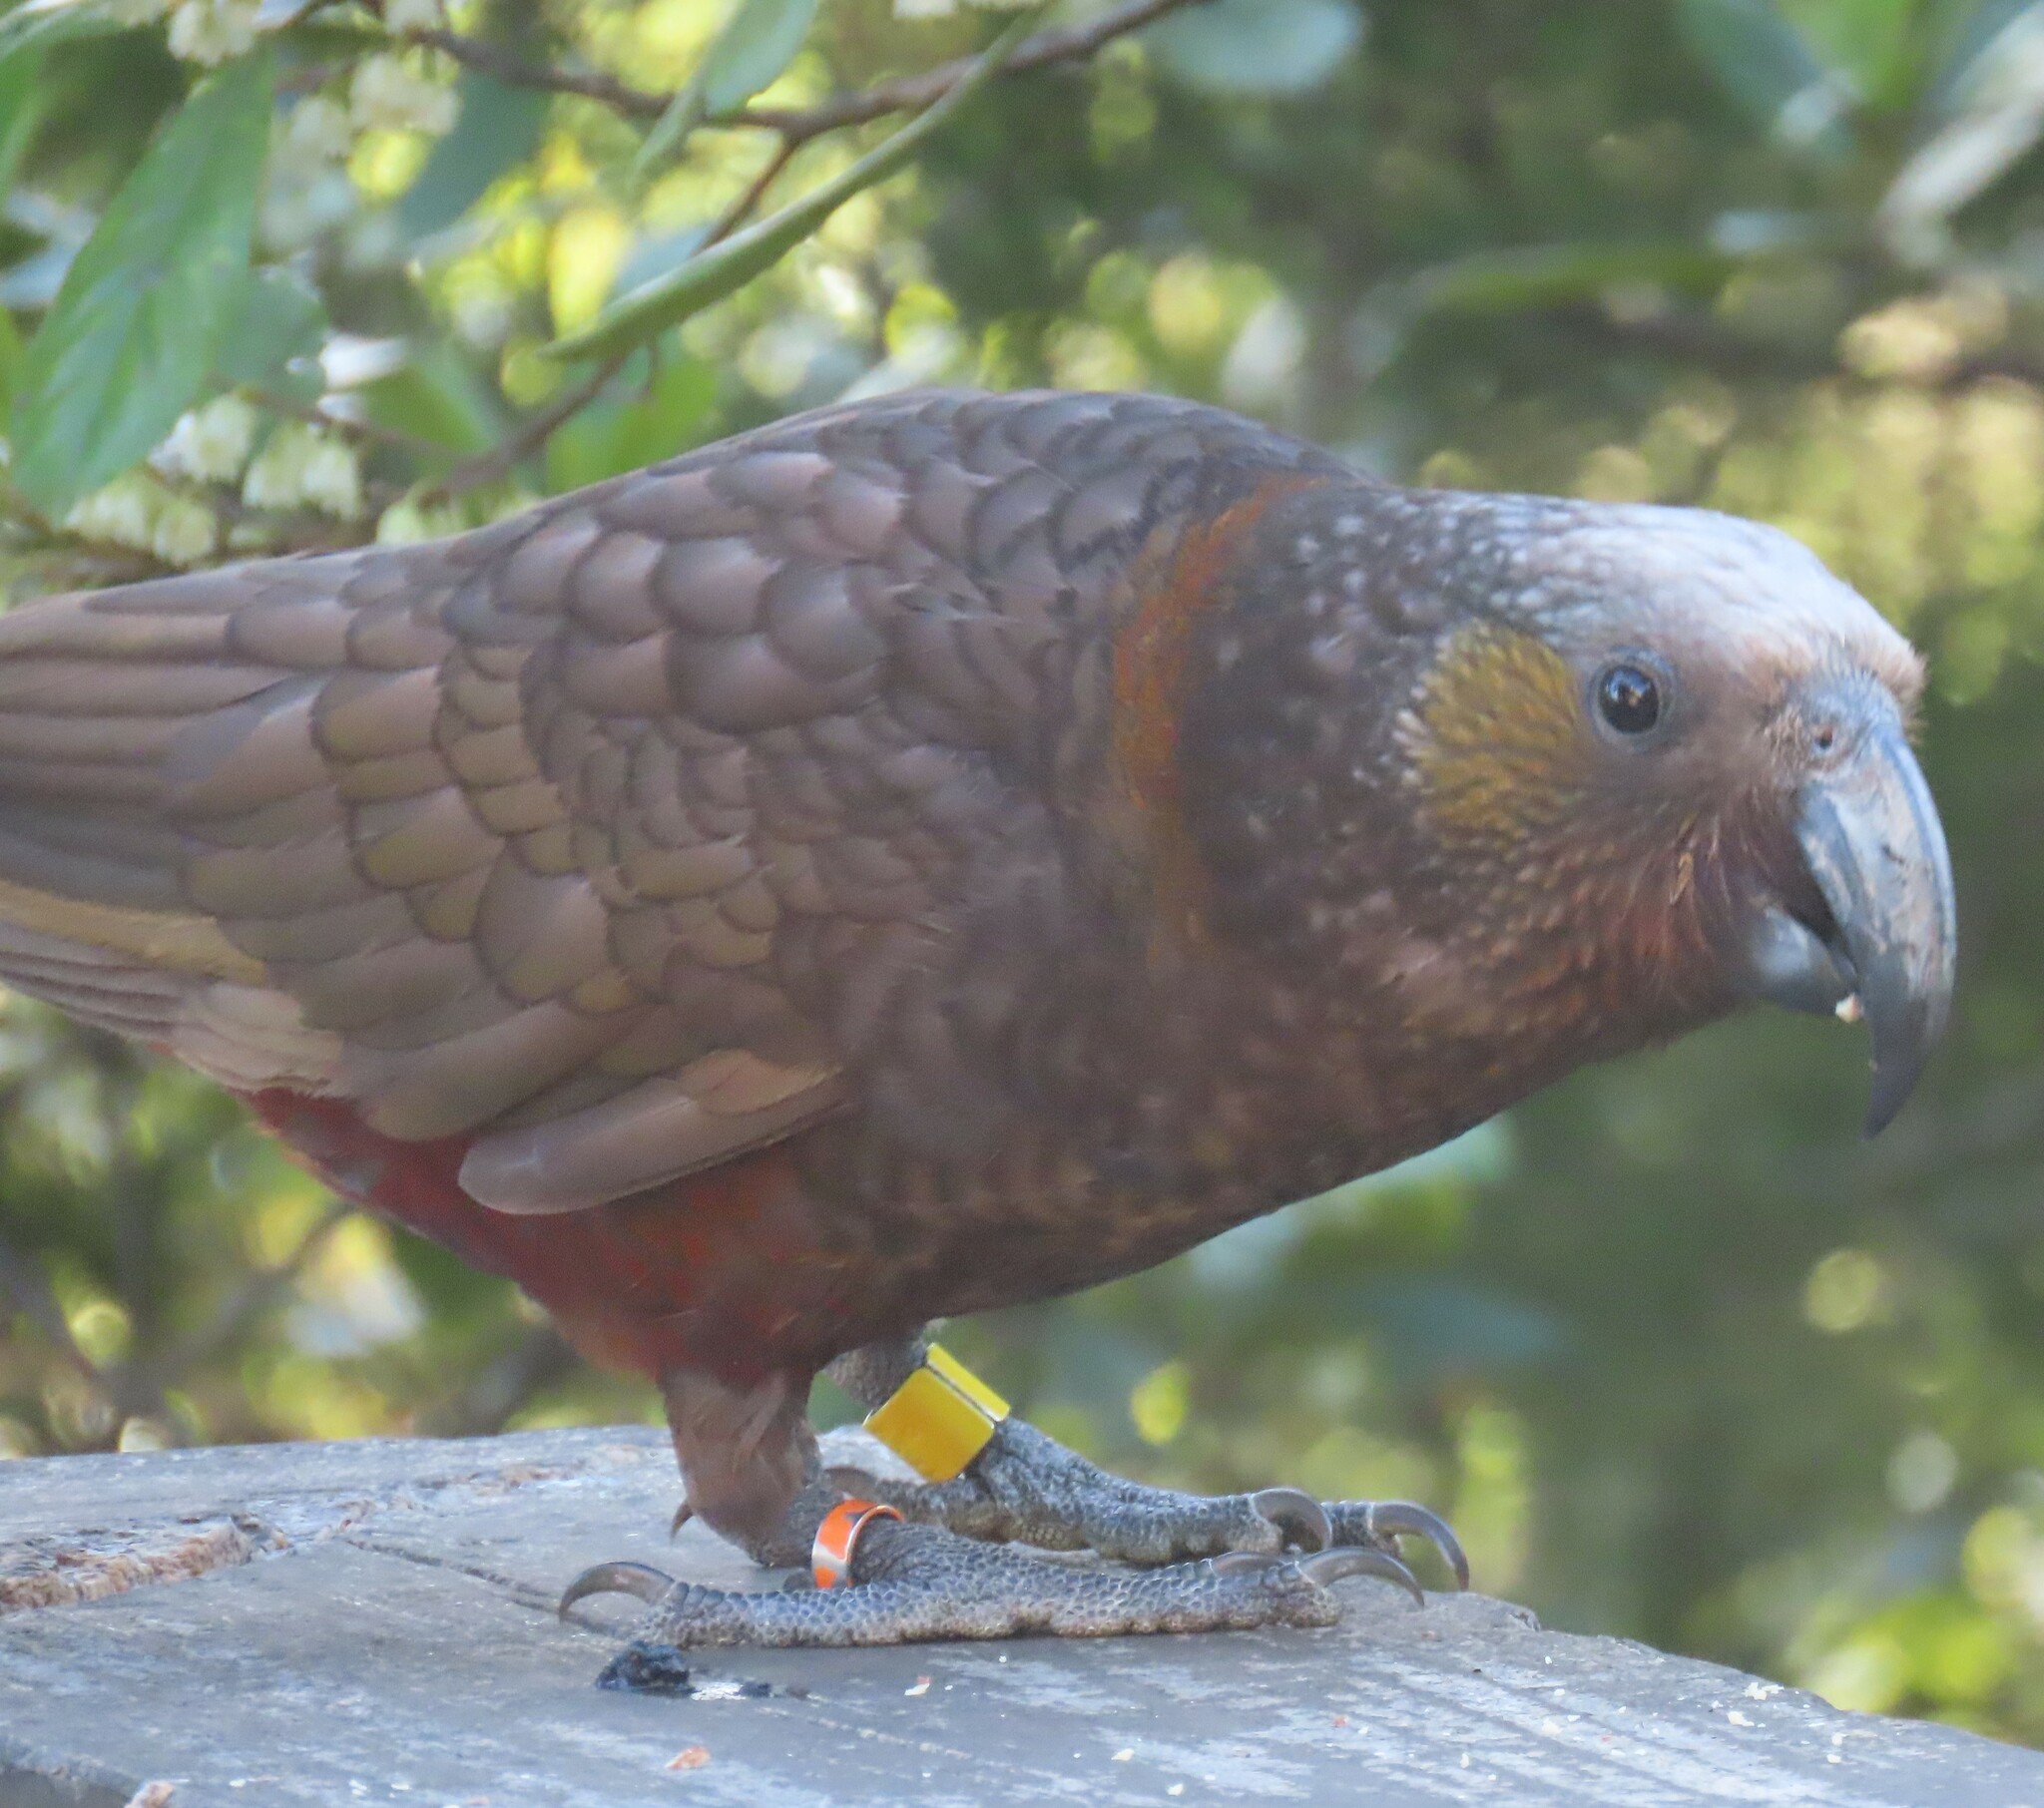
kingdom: Animalia
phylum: Chordata
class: Aves
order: Psittaciformes
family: Psittacidae
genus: Nestor
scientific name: Nestor meridionalis
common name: New zealand kaka
